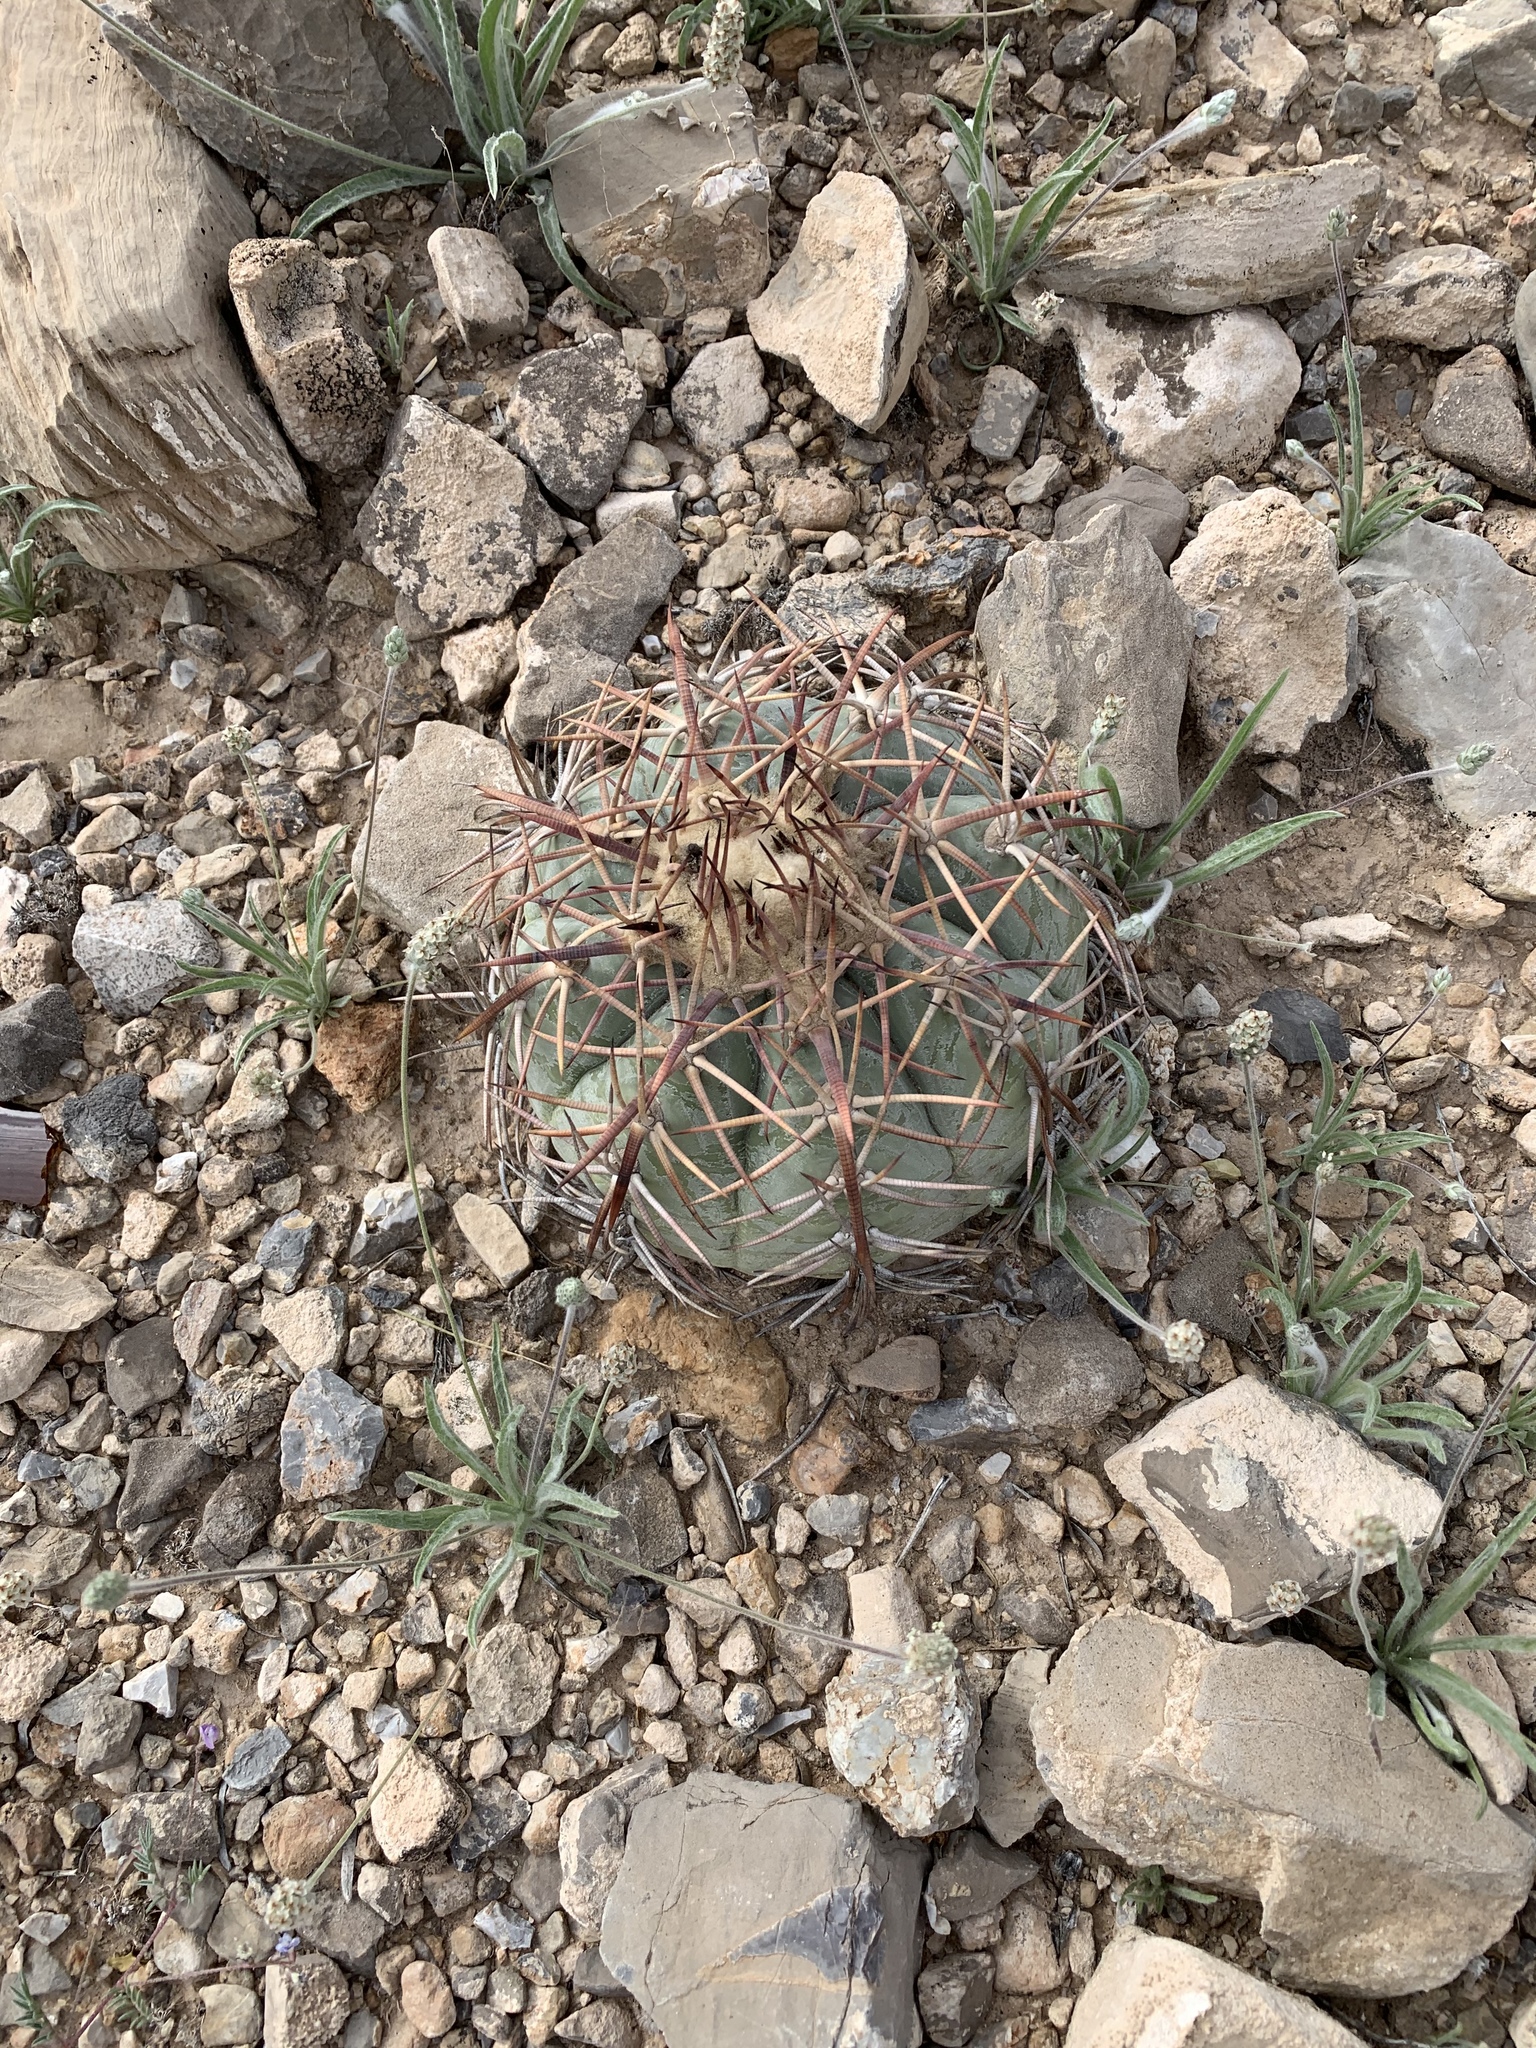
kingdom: Plantae
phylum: Tracheophyta
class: Magnoliopsida
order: Caryophyllales
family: Cactaceae
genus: Echinocactus
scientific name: Echinocactus horizonthalonius
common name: Devilshead
